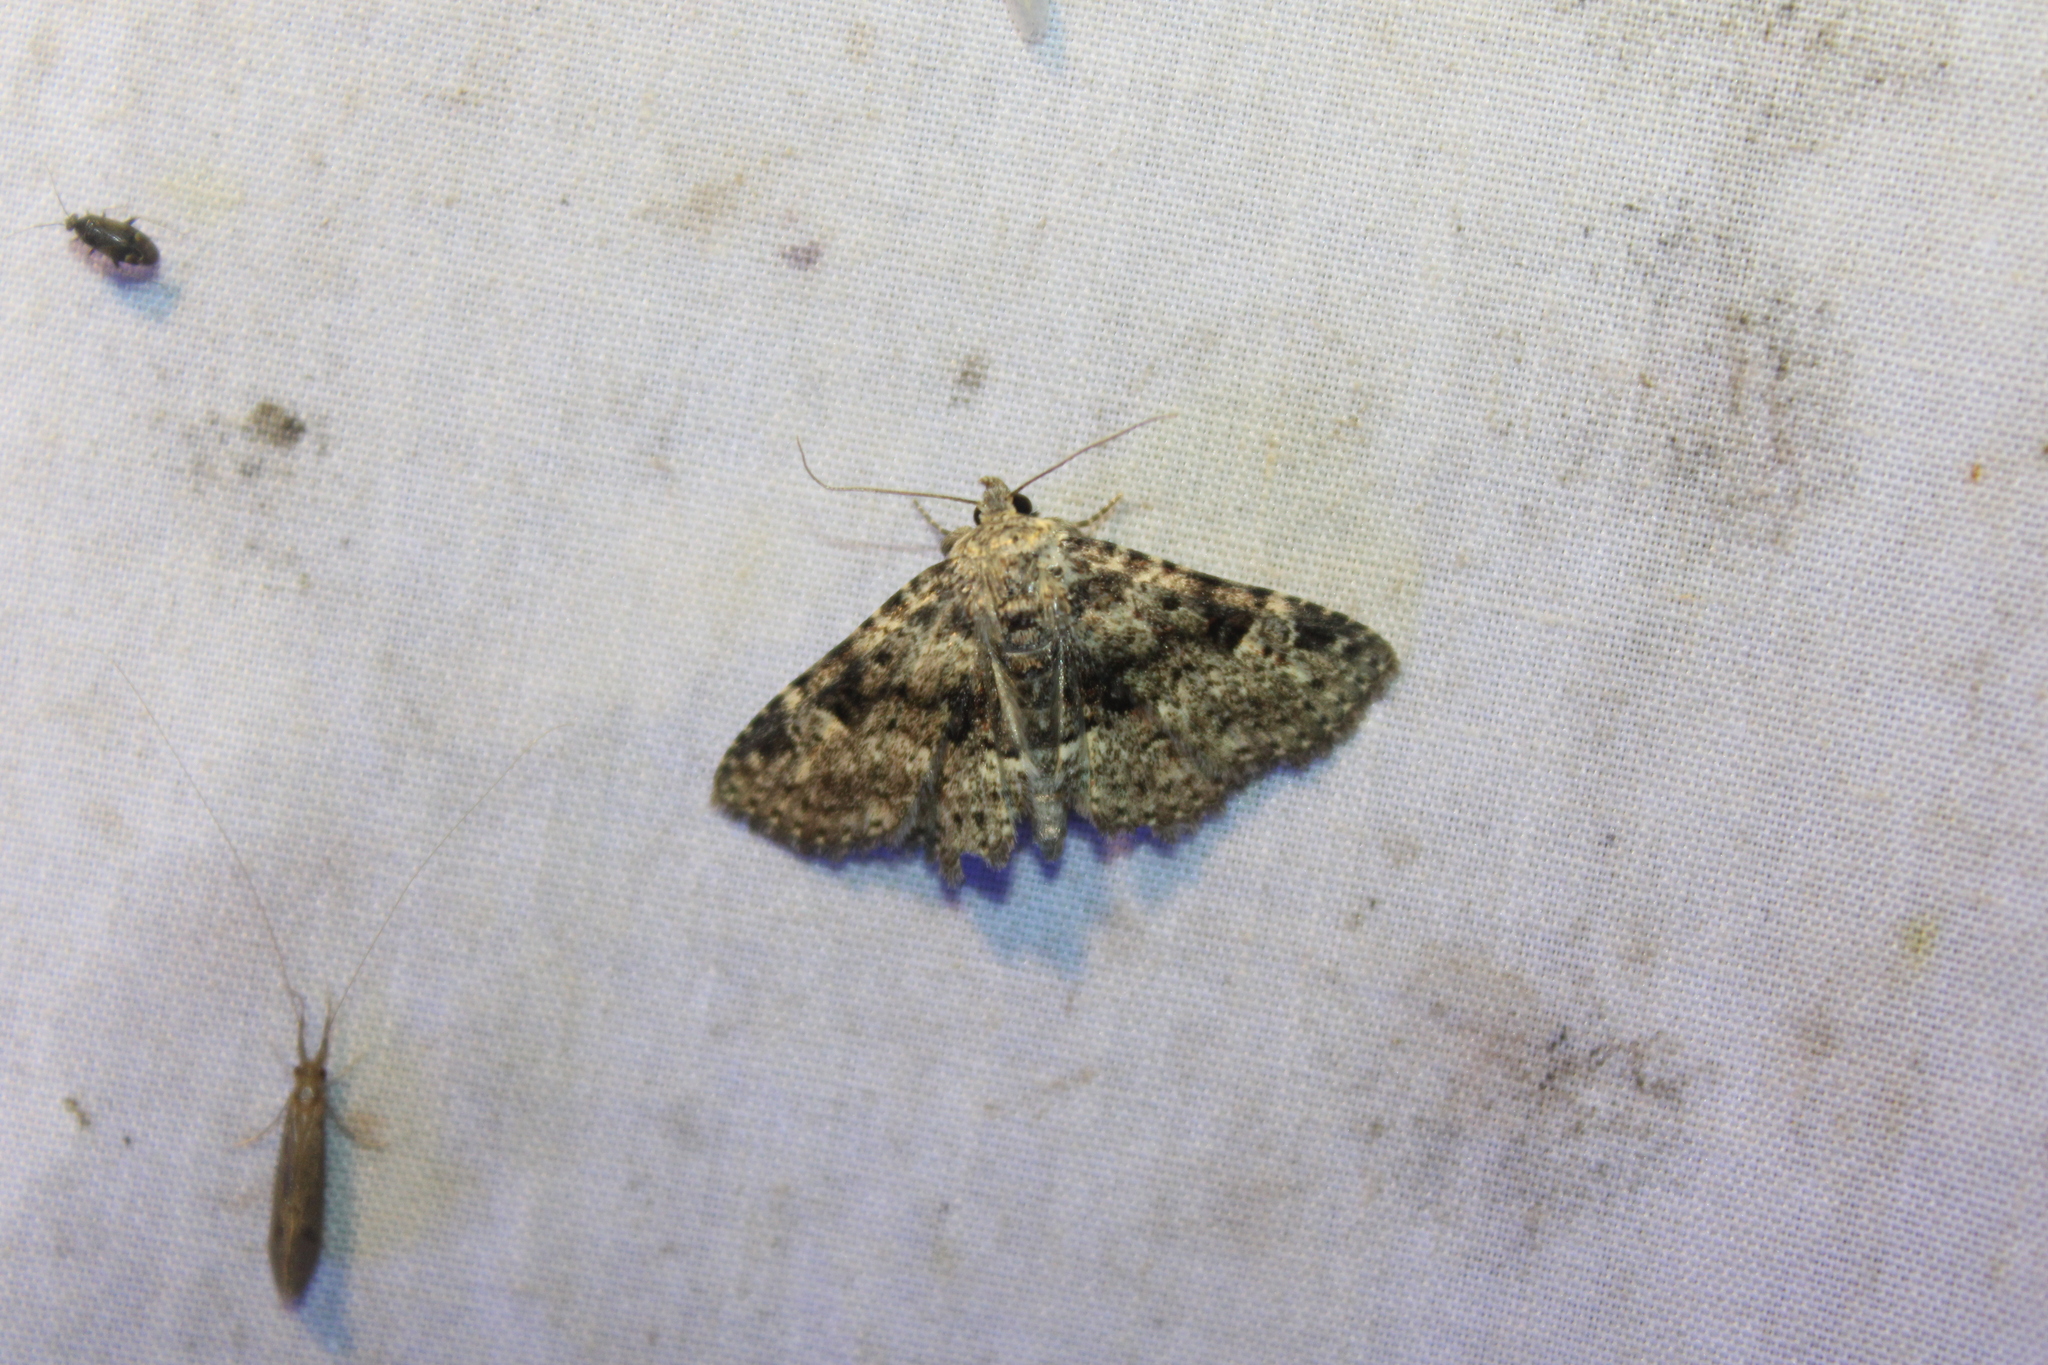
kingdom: Animalia
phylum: Arthropoda
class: Insecta
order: Lepidoptera
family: Erebidae
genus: Metalectra
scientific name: Metalectra discalis
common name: Common fungus moth
